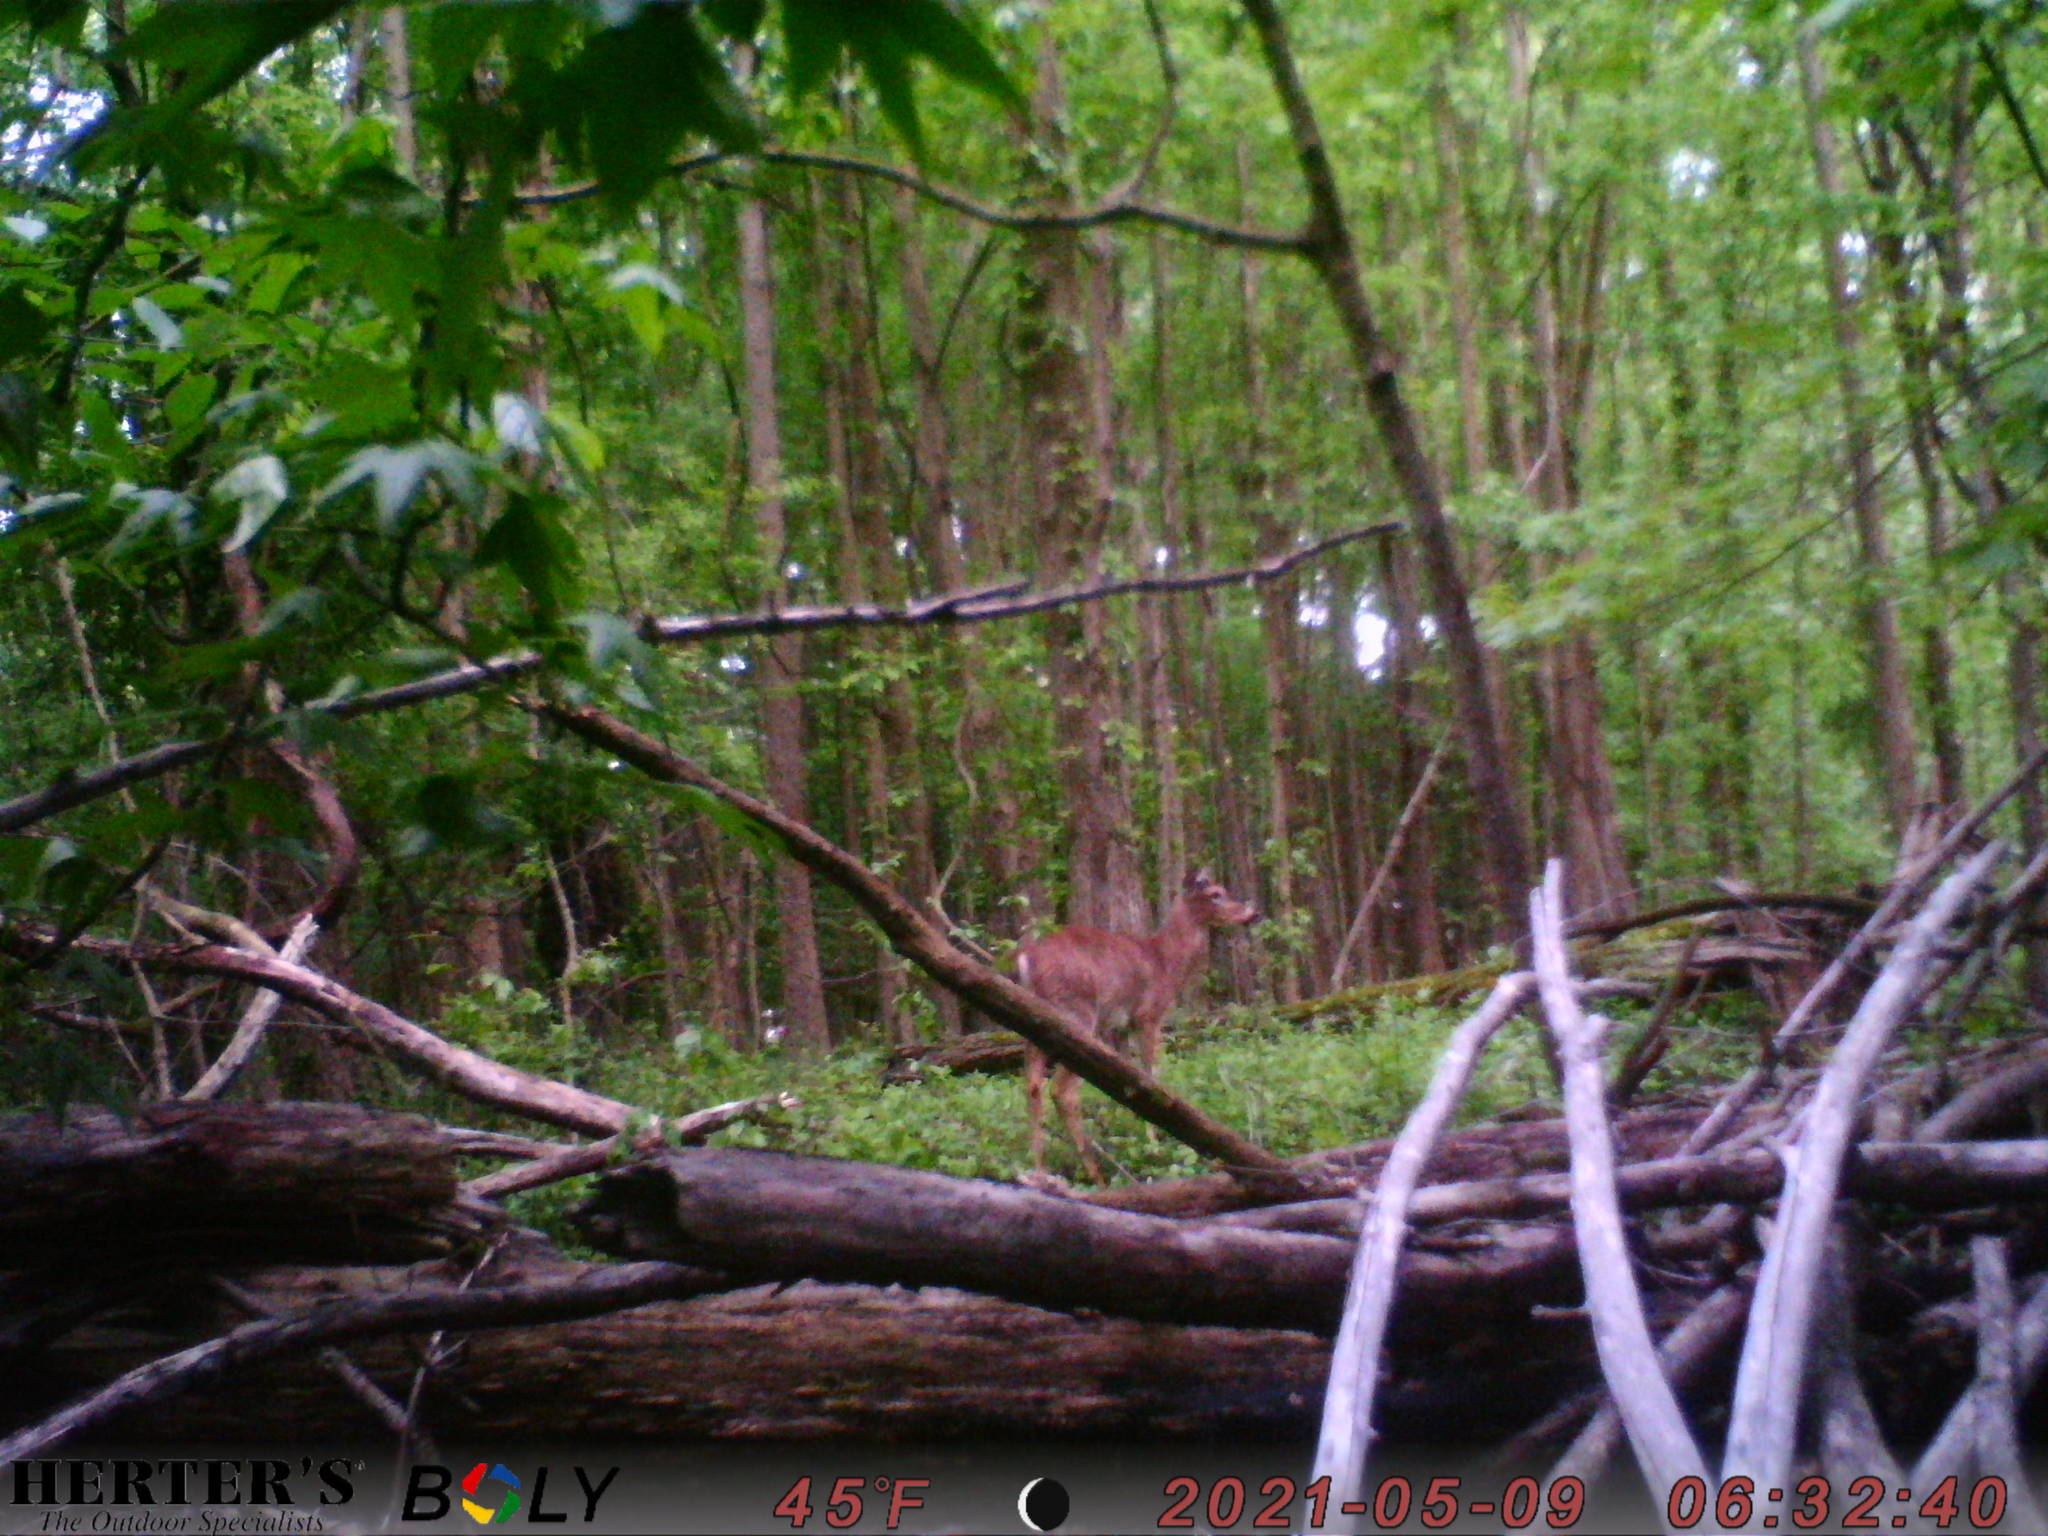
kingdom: Animalia
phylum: Chordata
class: Mammalia
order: Artiodactyla
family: Cervidae
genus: Odocoileus
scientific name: Odocoileus virginianus
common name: White-tailed deer
